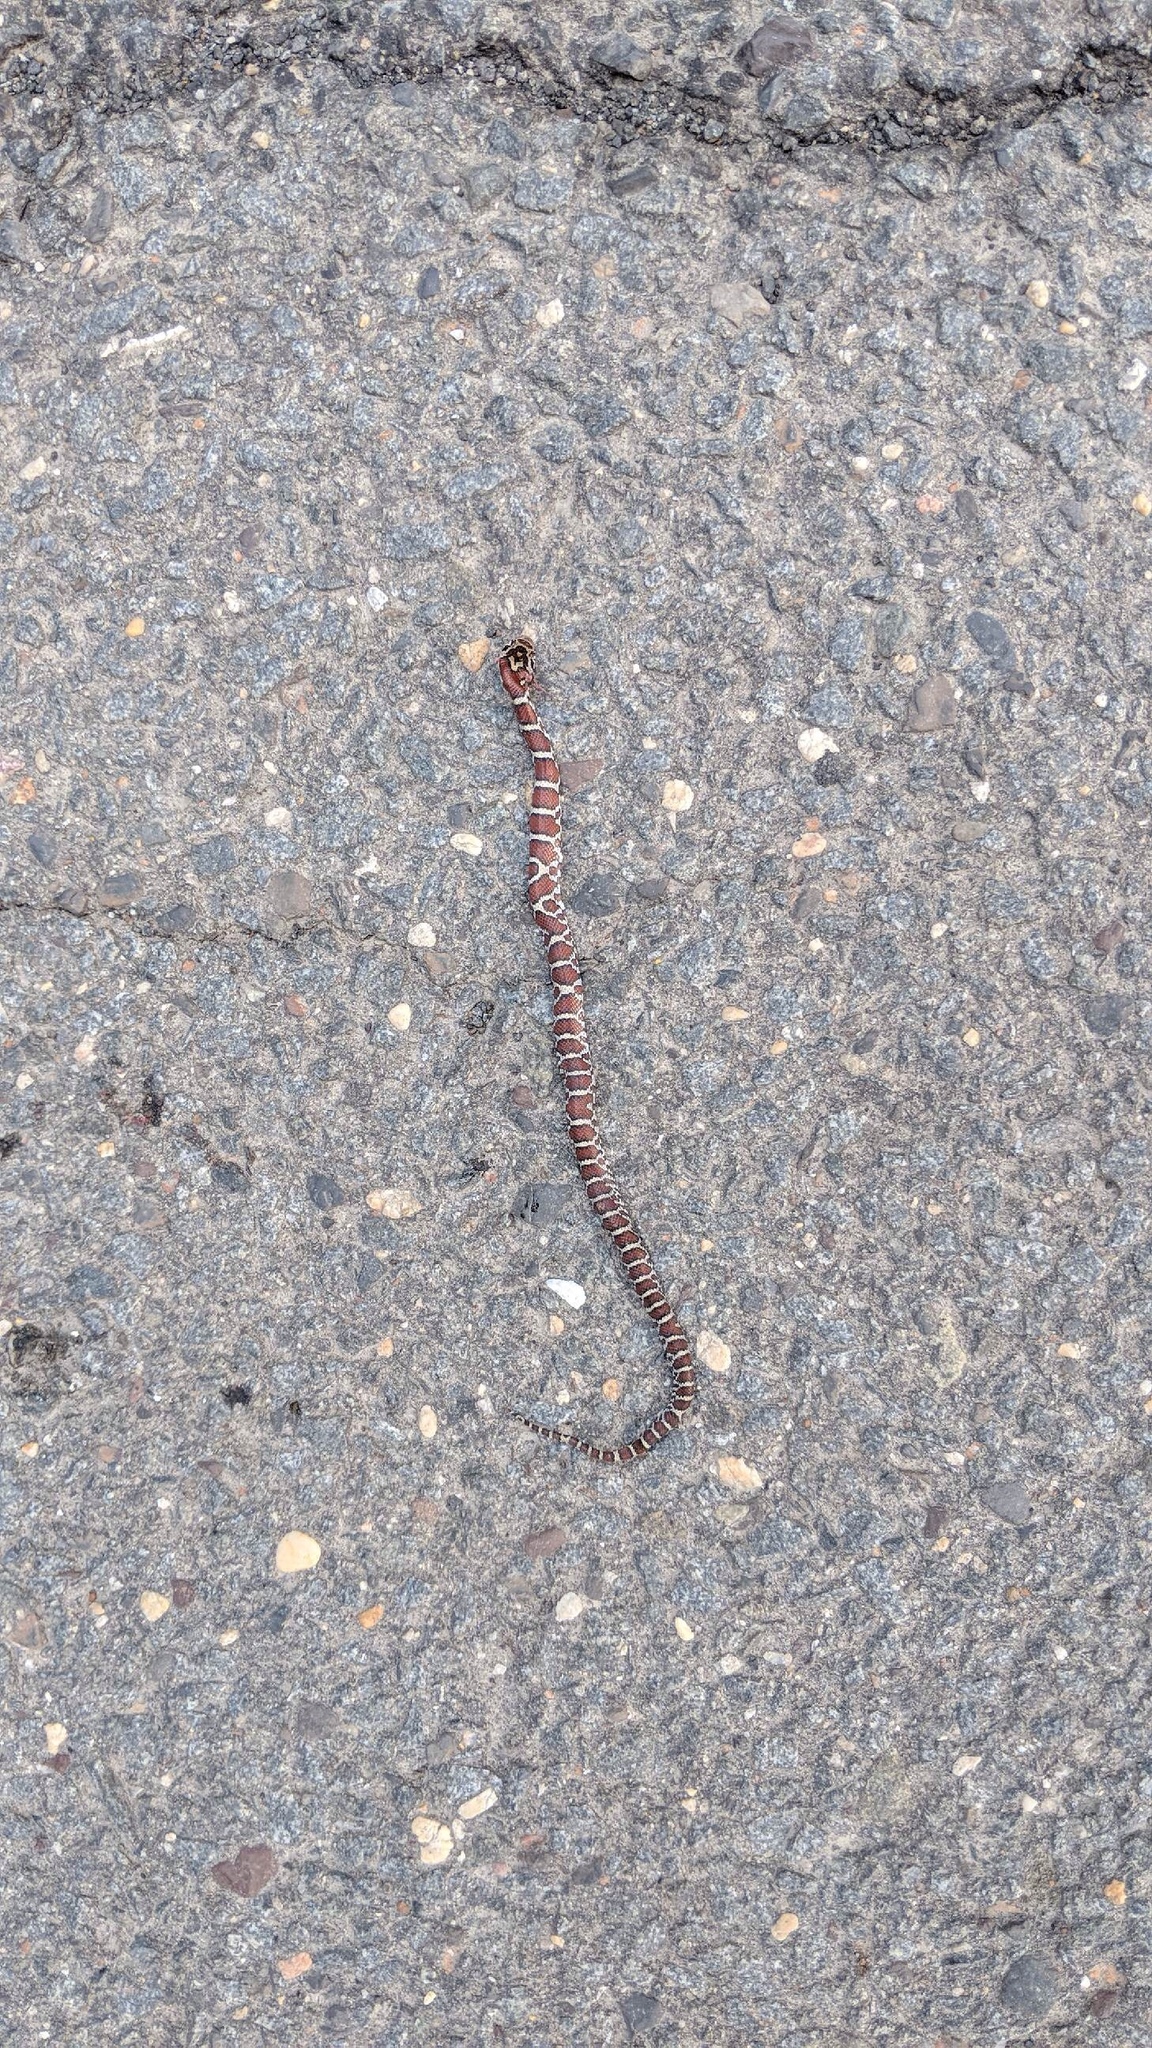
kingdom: Animalia
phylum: Chordata
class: Squamata
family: Colubridae
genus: Lampropeltis
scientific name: Lampropeltis triangulum
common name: Eastern milksnake
